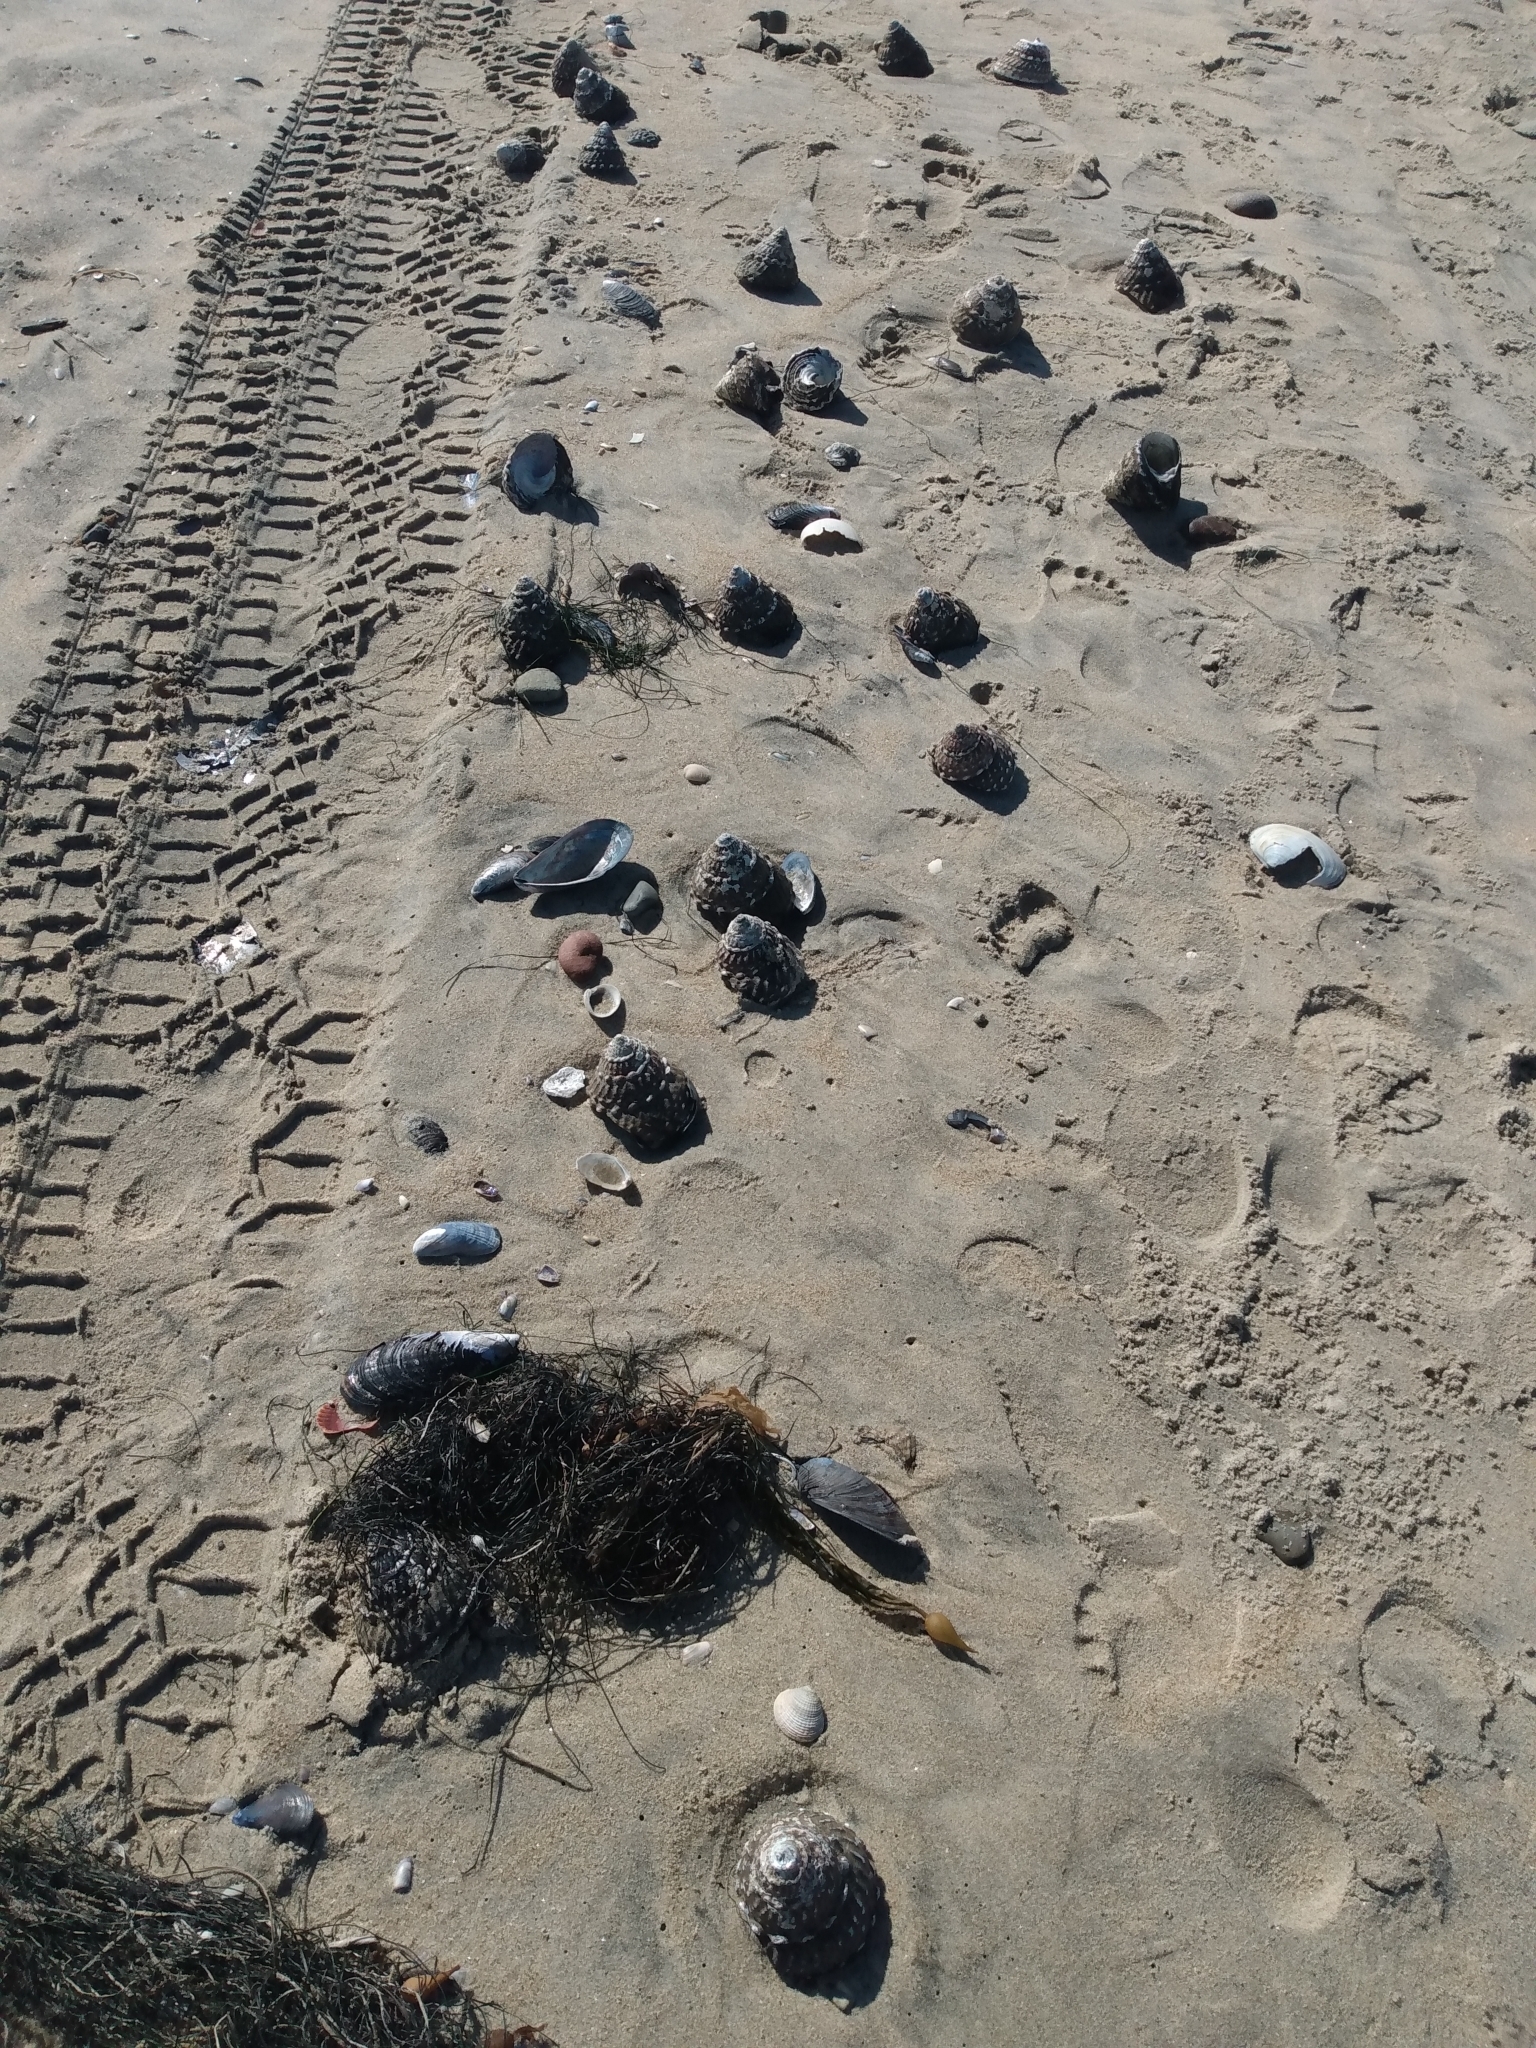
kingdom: Animalia
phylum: Mollusca
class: Gastropoda
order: Trochida
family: Turbinidae
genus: Megastraea
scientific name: Megastraea undosa
